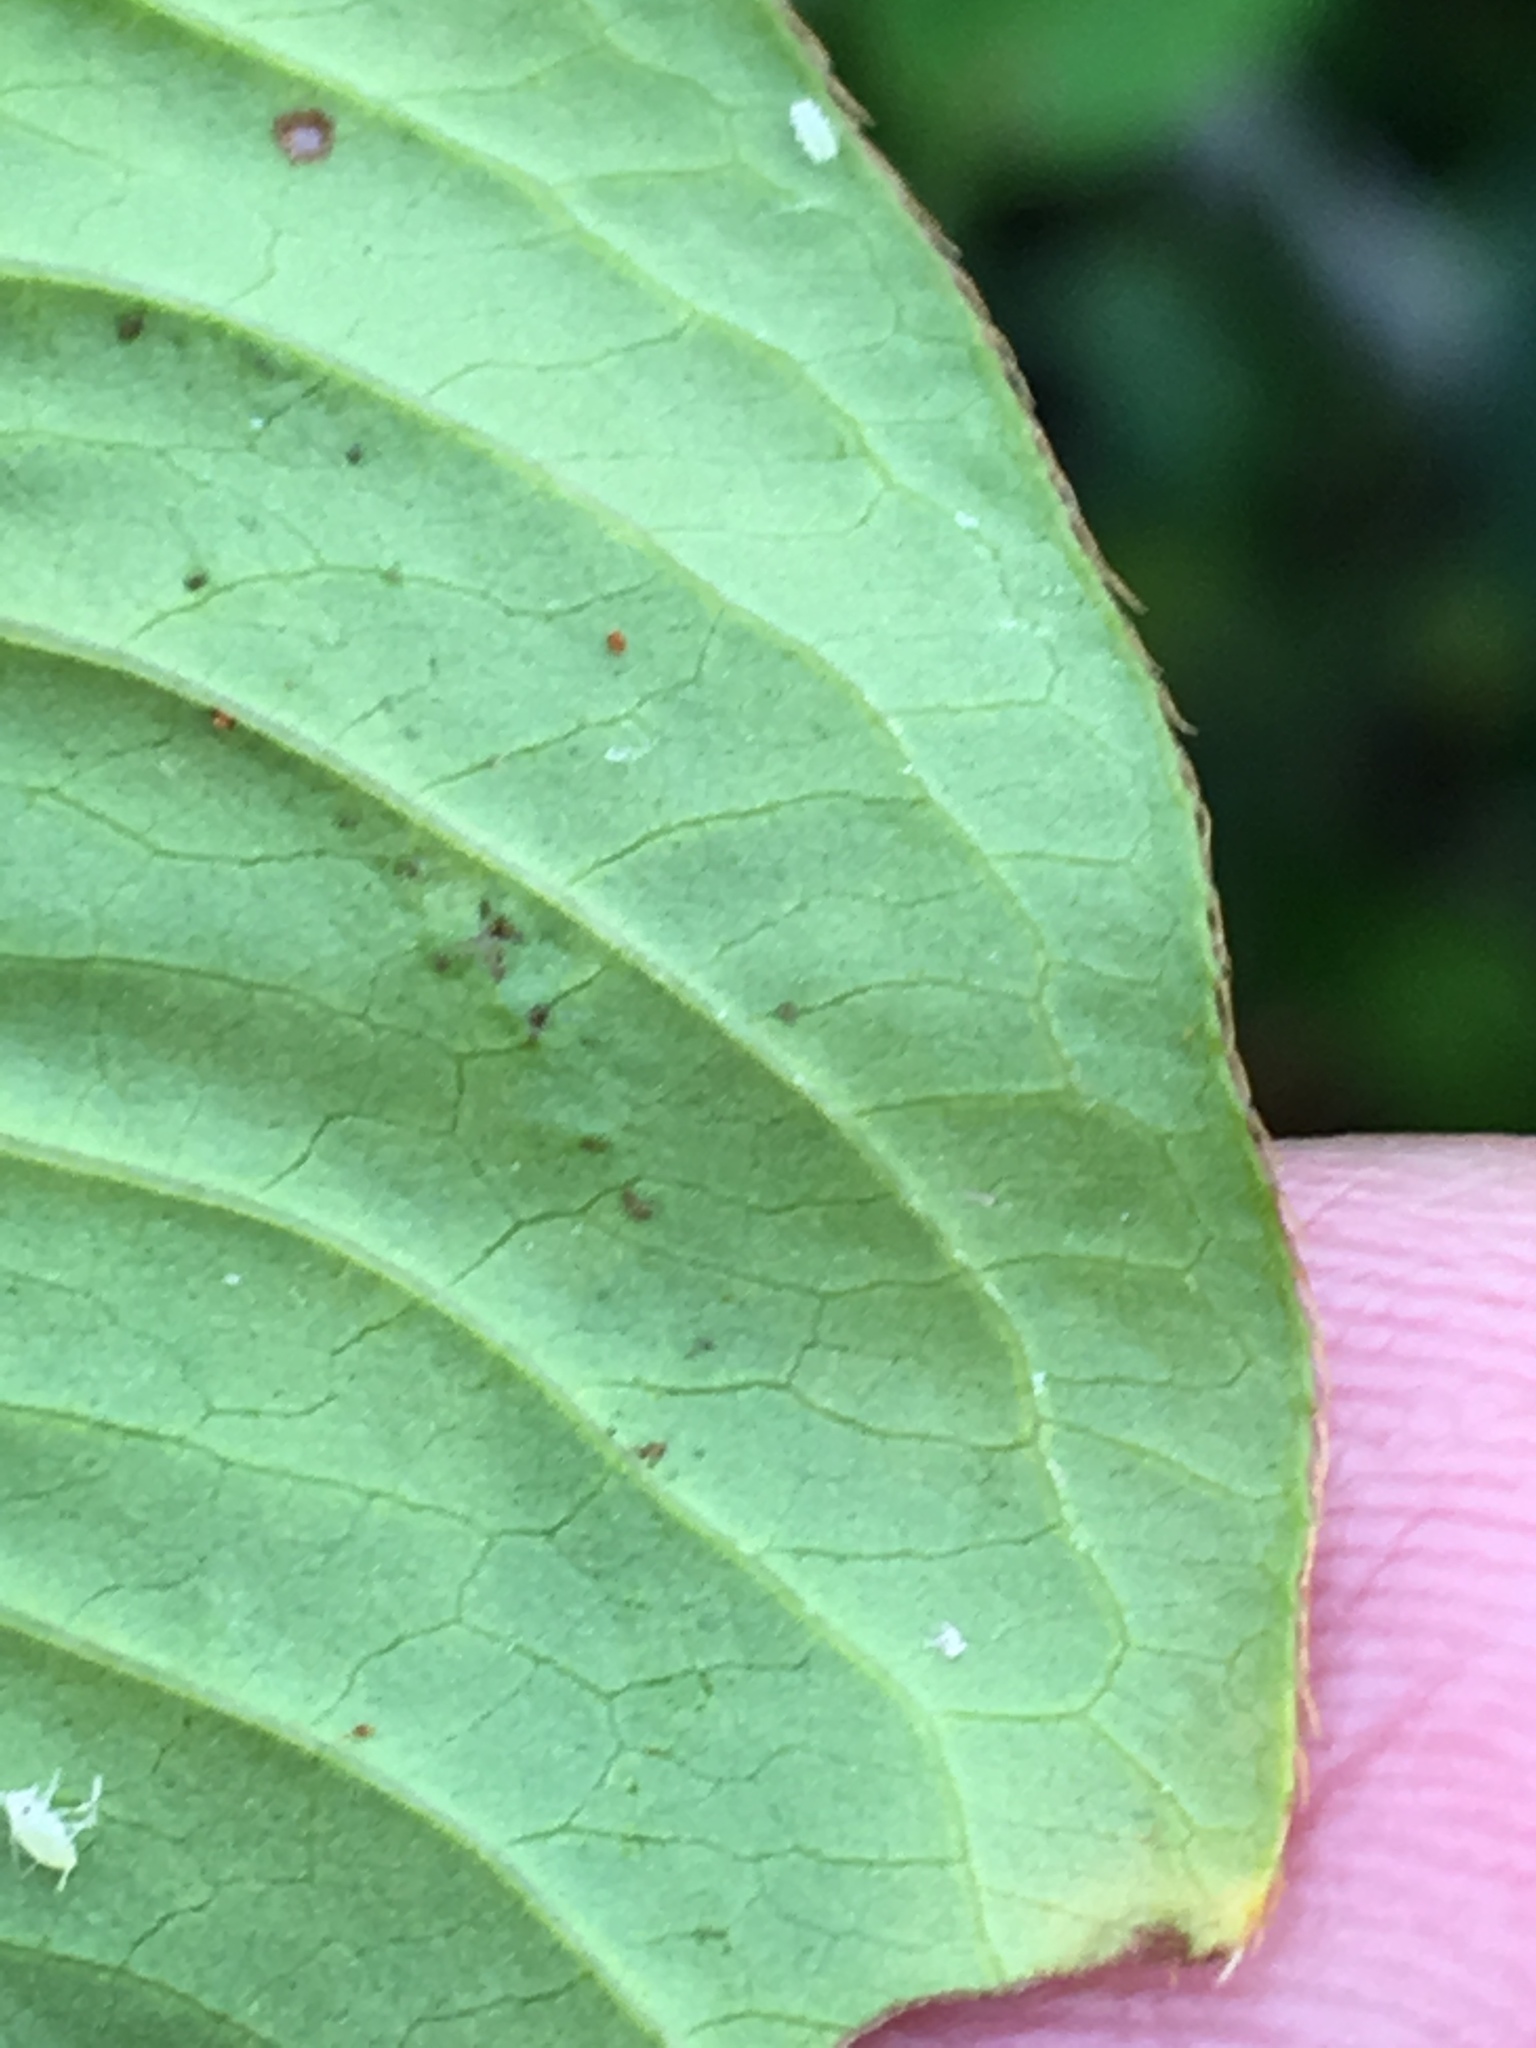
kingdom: Plantae
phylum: Tracheophyta
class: Magnoliopsida
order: Caryophyllales
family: Polygonaceae
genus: Persicaria
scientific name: Persicaria extremiorientalis
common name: Far-eastern smartweed
